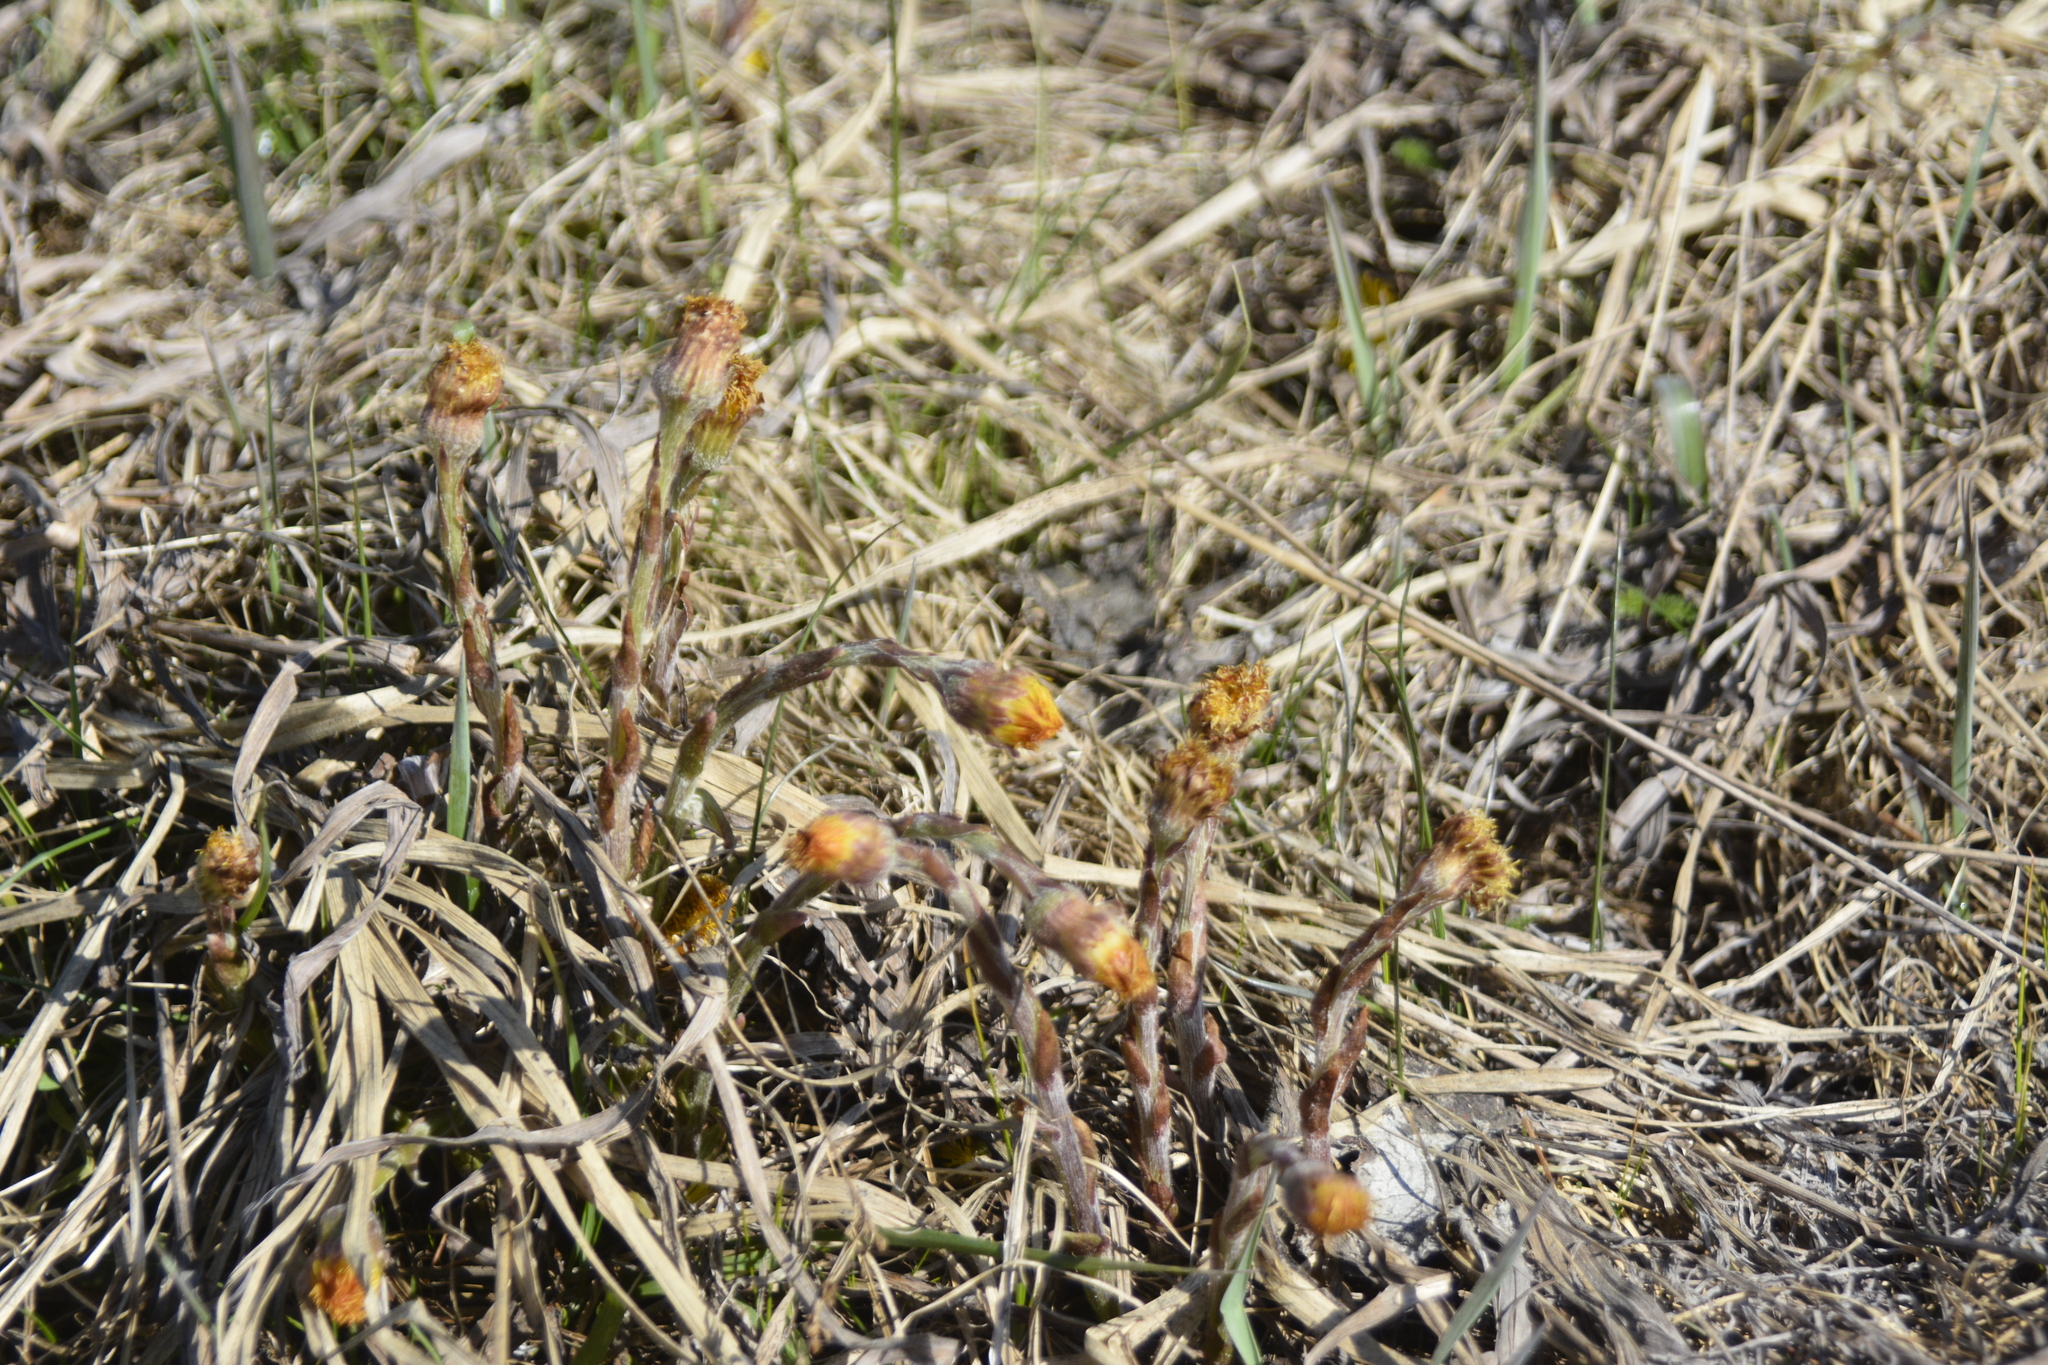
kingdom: Plantae
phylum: Tracheophyta
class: Magnoliopsida
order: Asterales
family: Asteraceae
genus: Tussilago
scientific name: Tussilago farfara
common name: Coltsfoot
